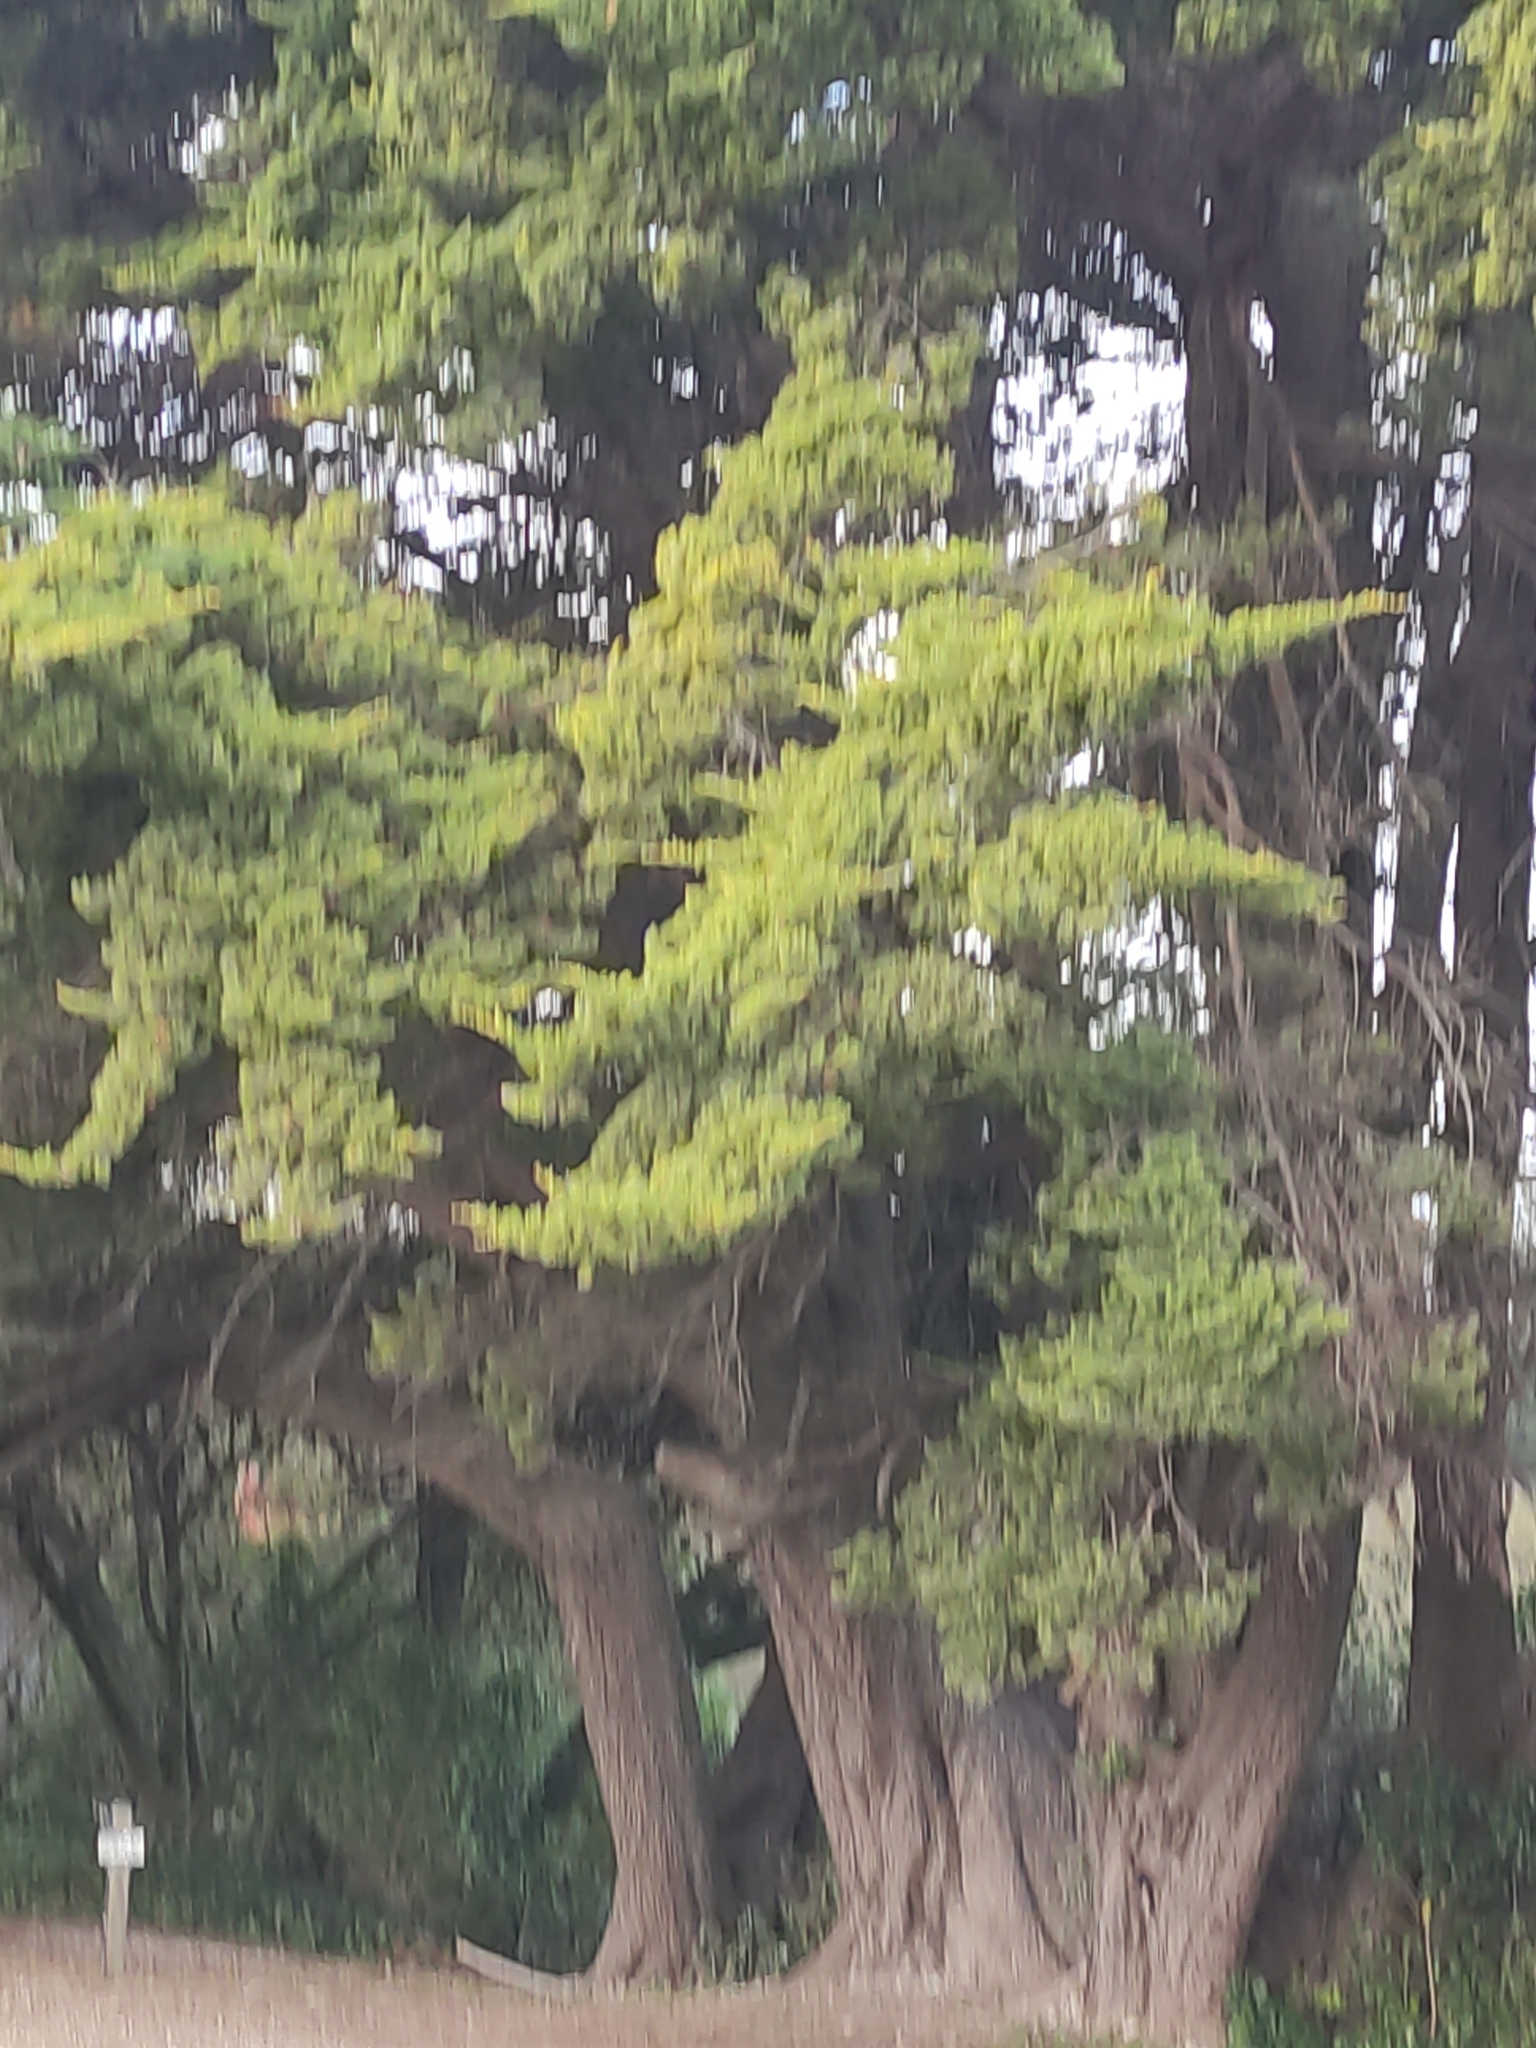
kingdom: Plantae
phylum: Tracheophyta
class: Pinopsida
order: Pinales
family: Cupressaceae
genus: Cupressus
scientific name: Cupressus macrocarpa
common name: Monterey cypress
